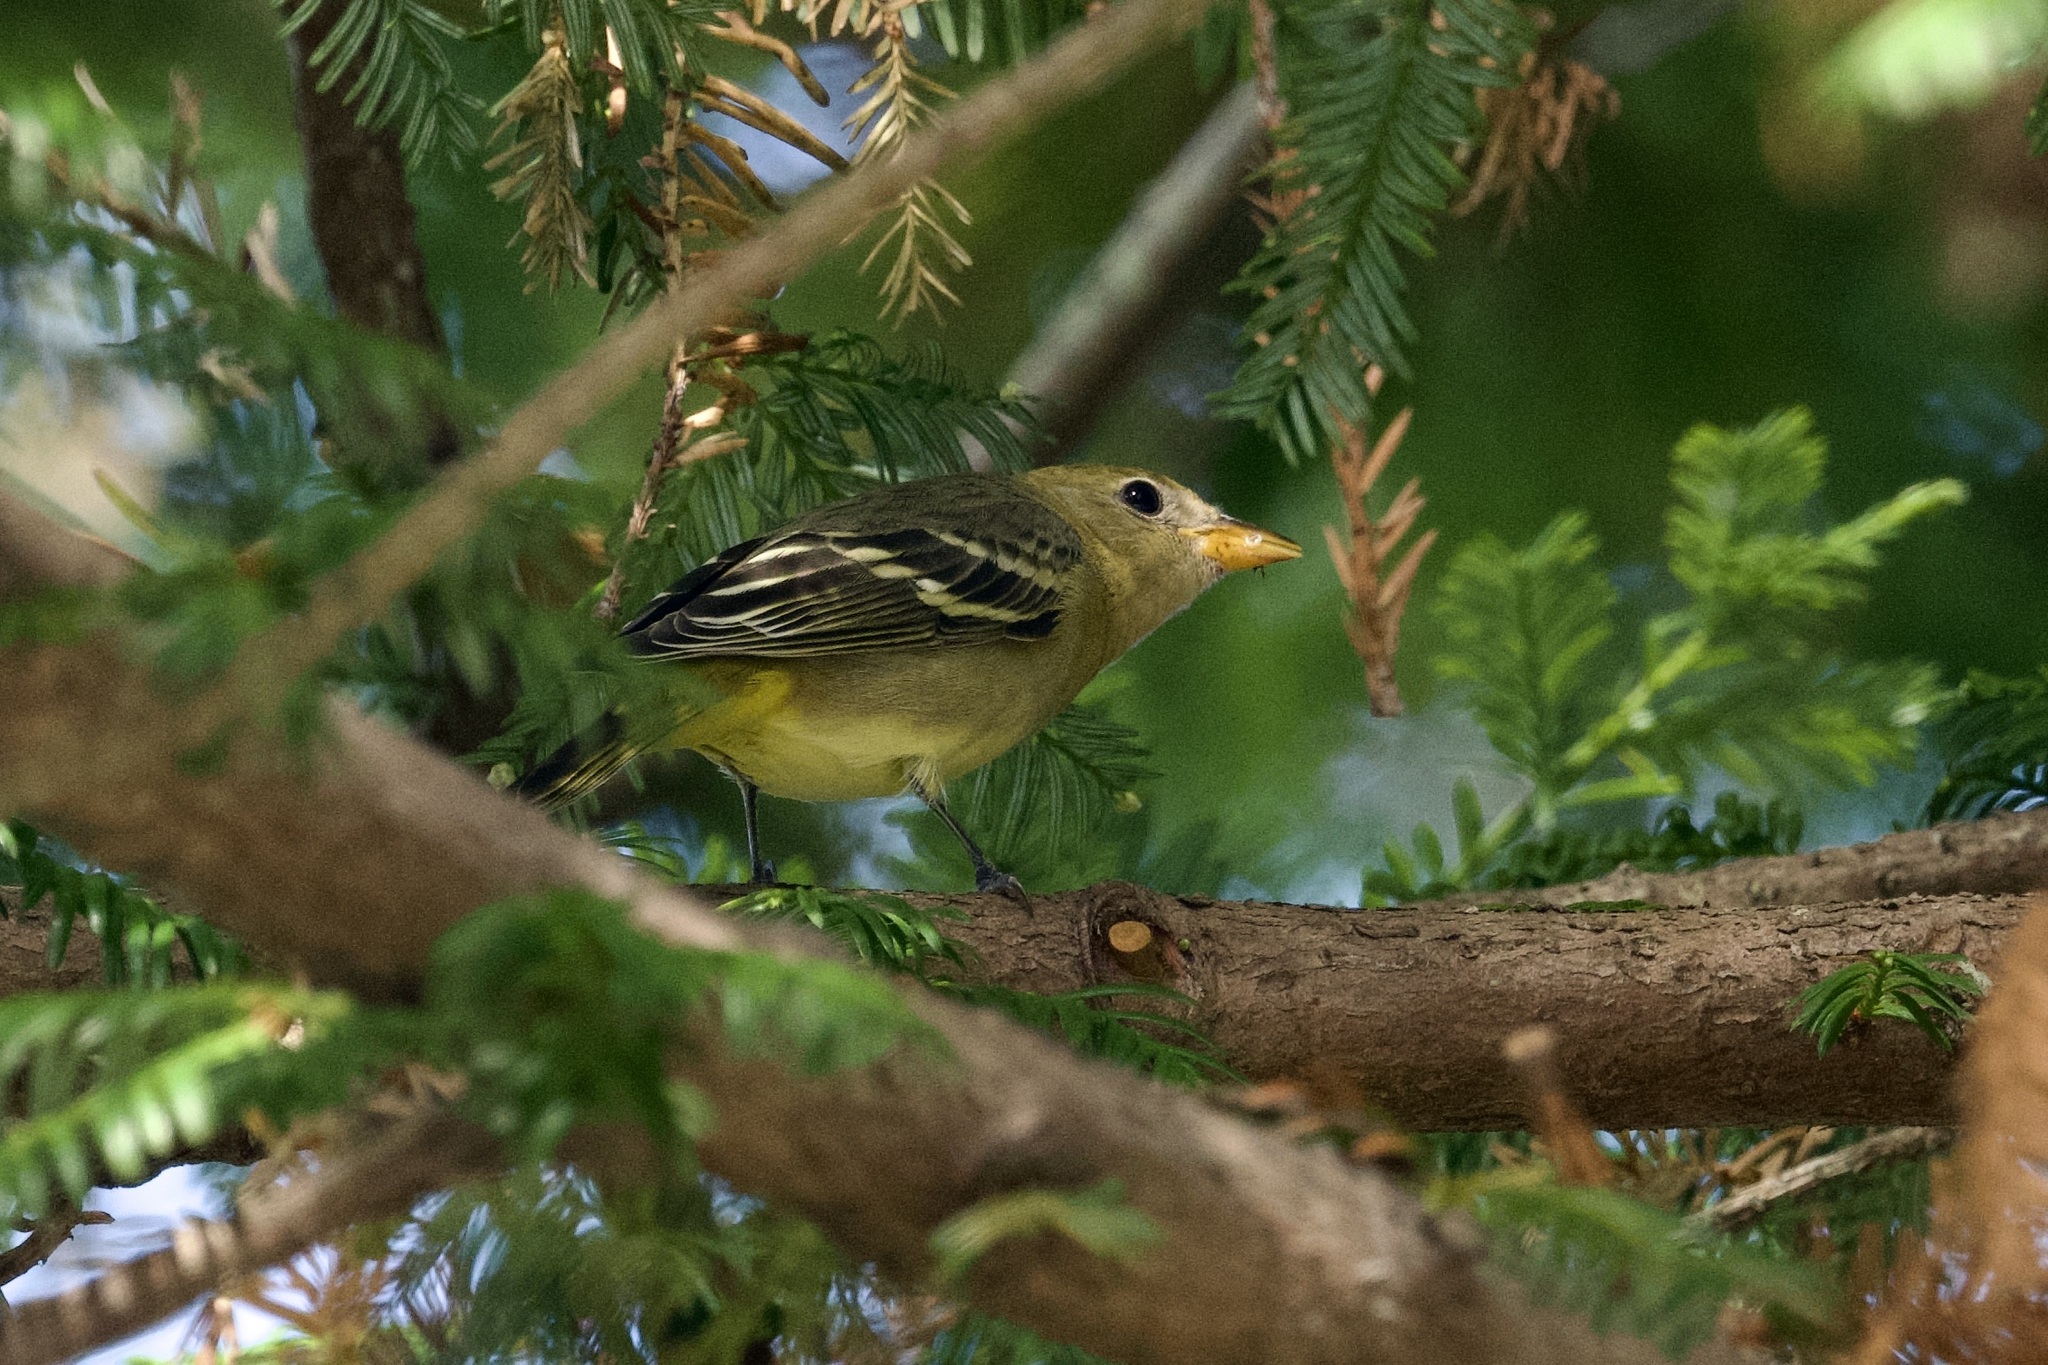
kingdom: Animalia
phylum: Chordata
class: Aves
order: Passeriformes
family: Cardinalidae
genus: Piranga
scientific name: Piranga ludoviciana
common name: Western tanager
